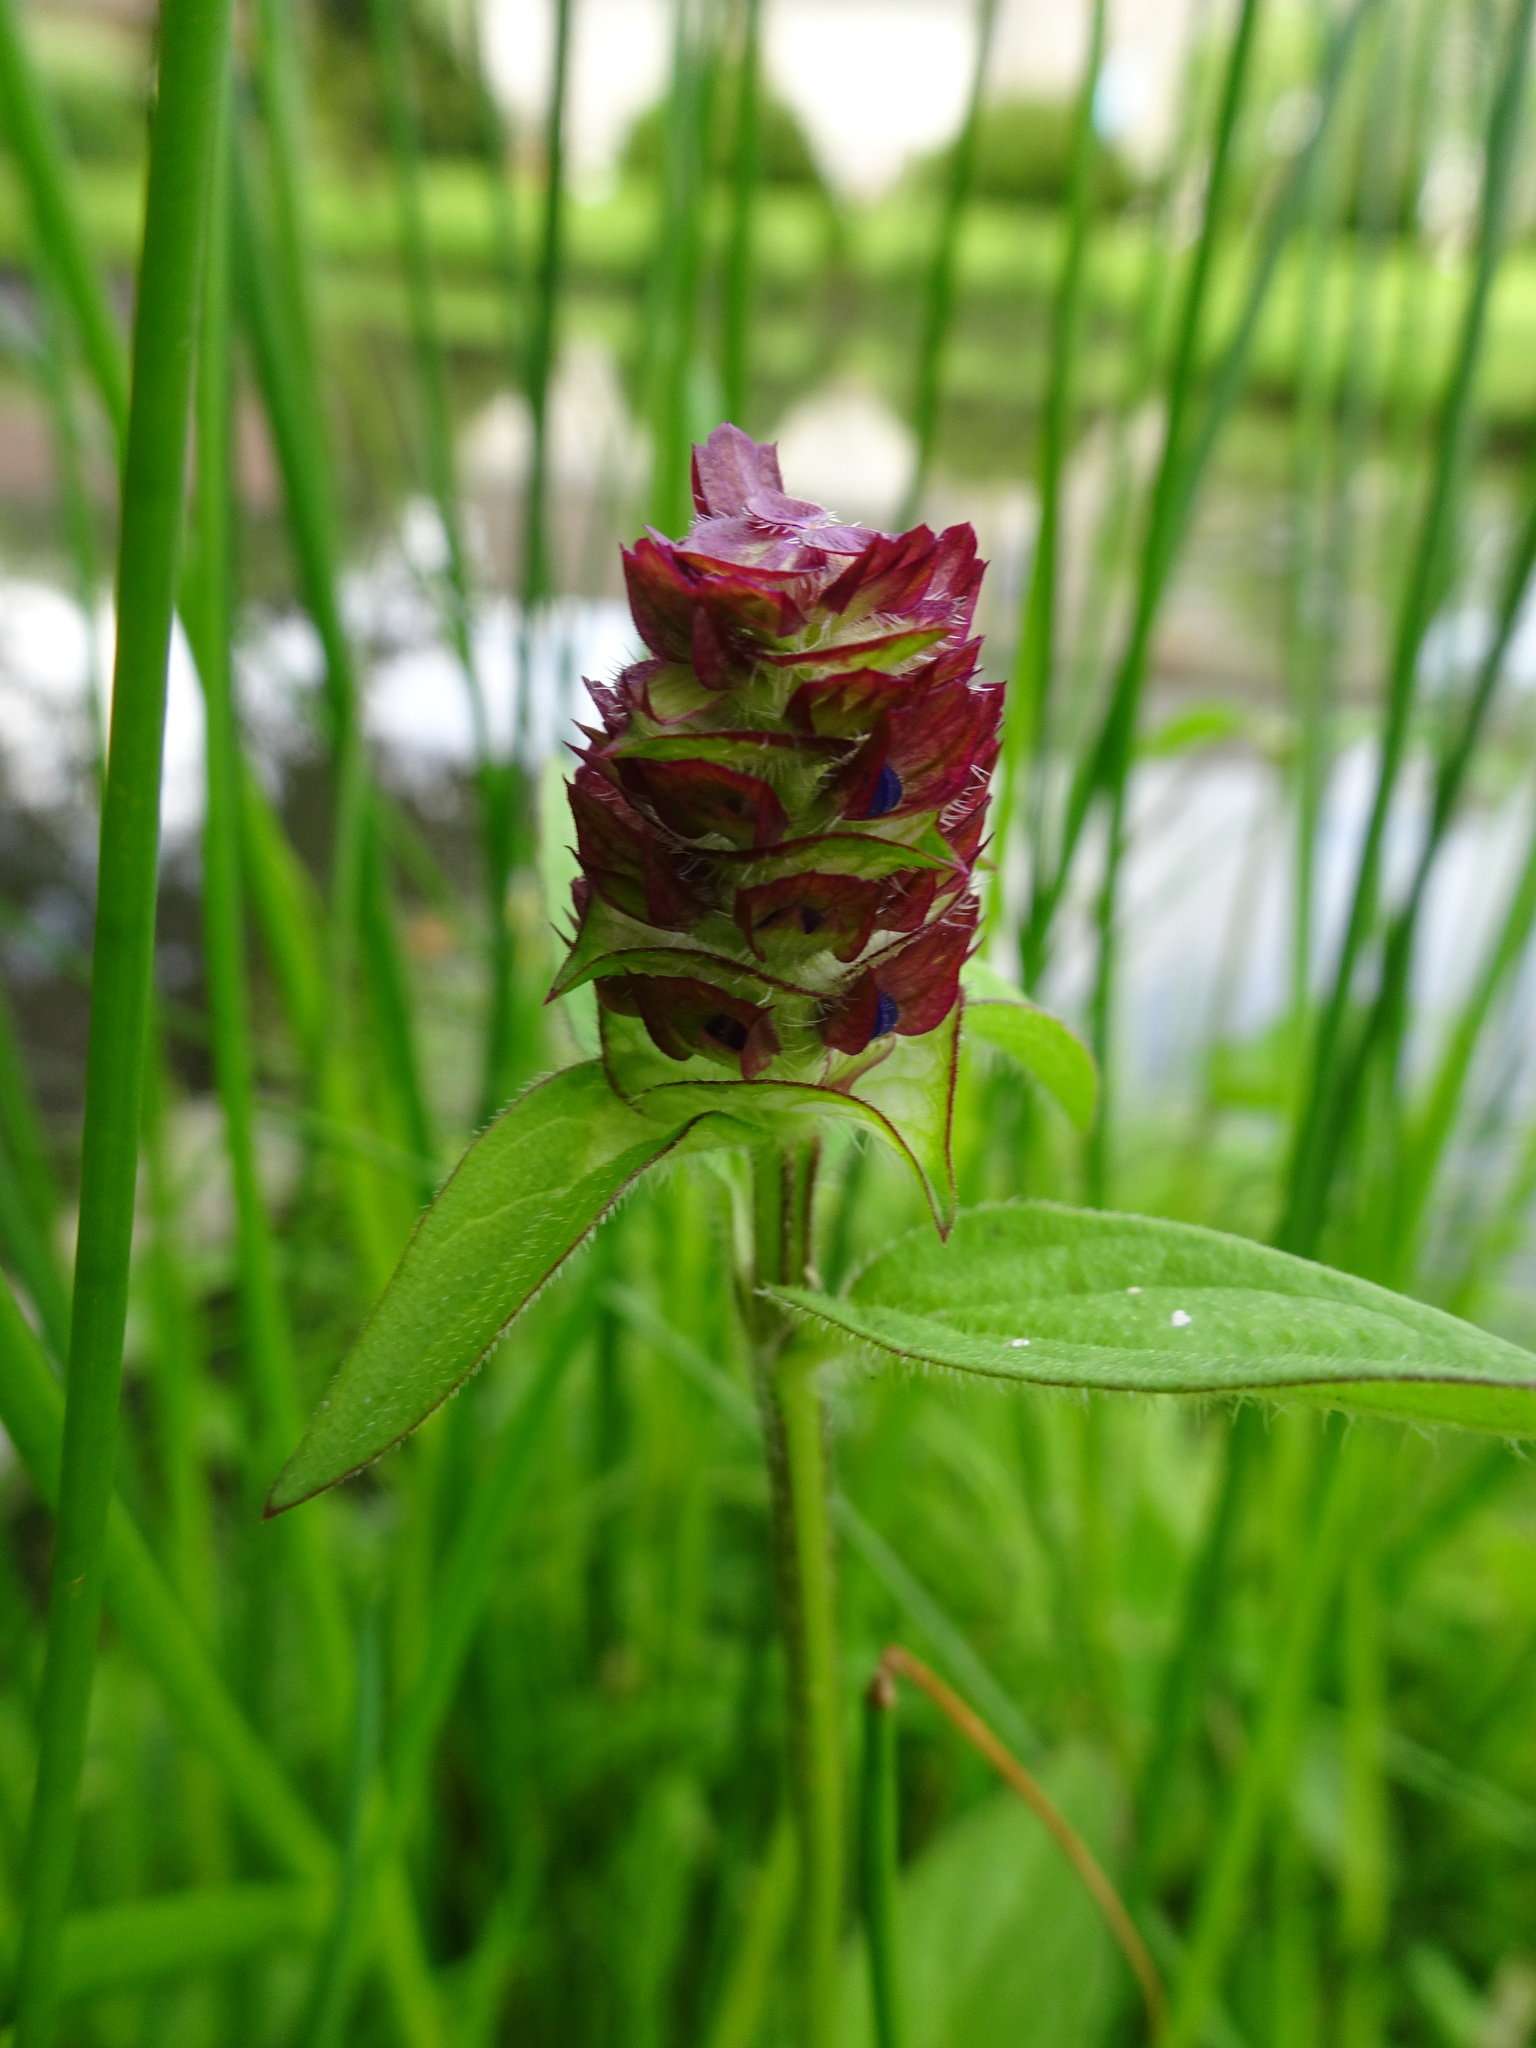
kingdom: Plantae
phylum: Tracheophyta
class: Magnoliopsida
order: Lamiales
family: Lamiaceae
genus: Prunella
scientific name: Prunella vulgaris
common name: Heal-all
